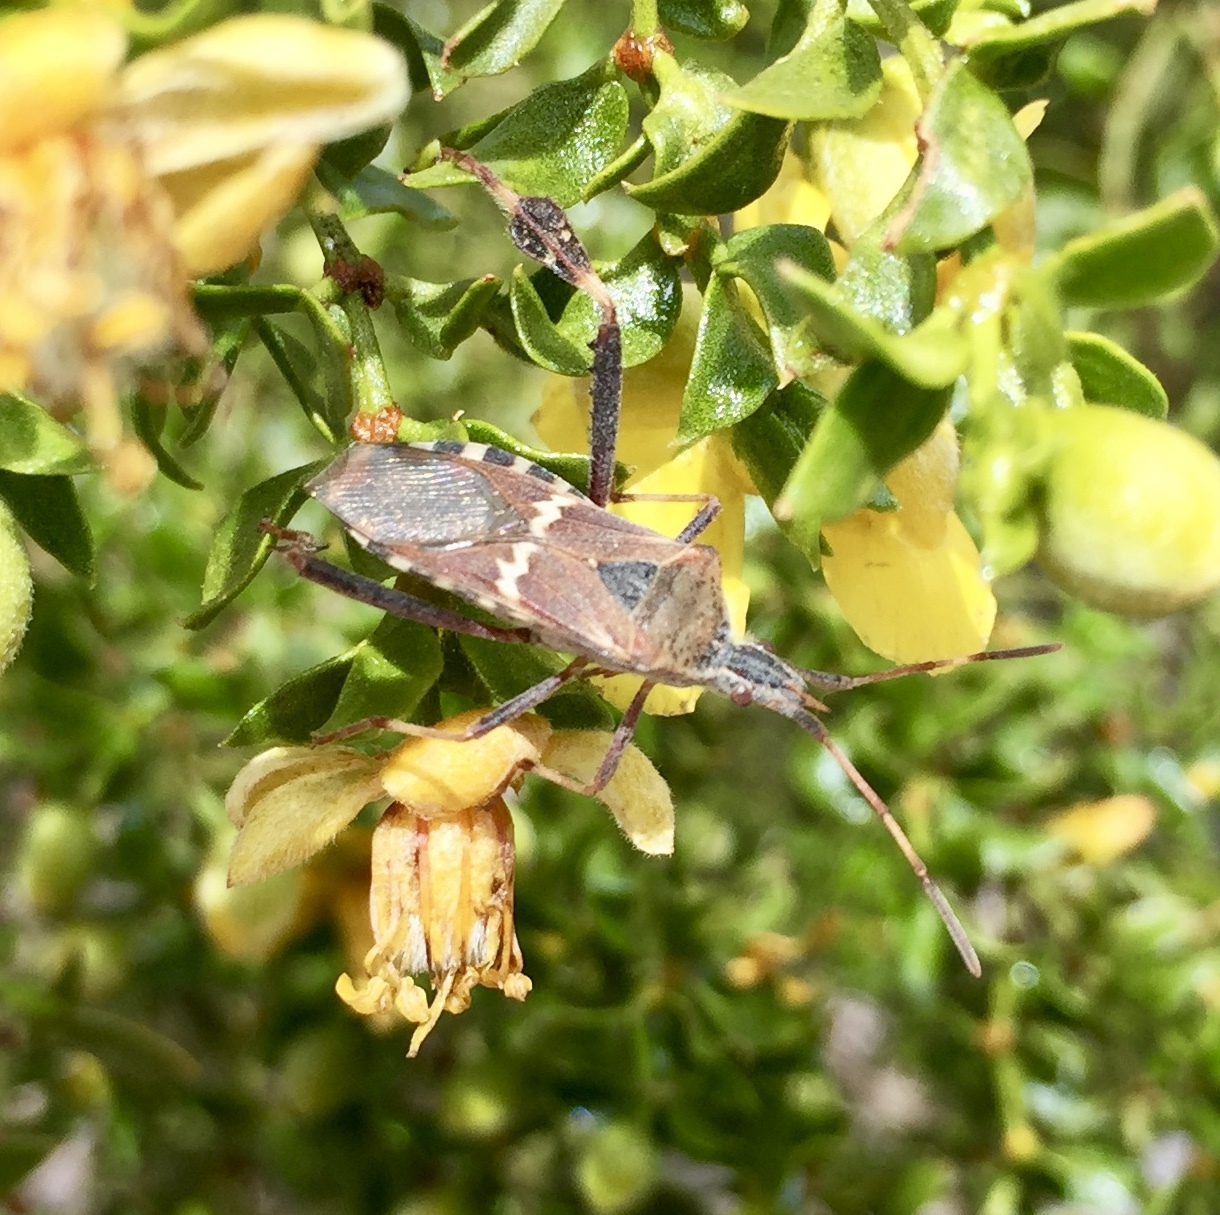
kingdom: Animalia
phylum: Arthropoda
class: Insecta
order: Hemiptera
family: Coreidae
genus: Leptoglossus
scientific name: Leptoglossus clypealis
